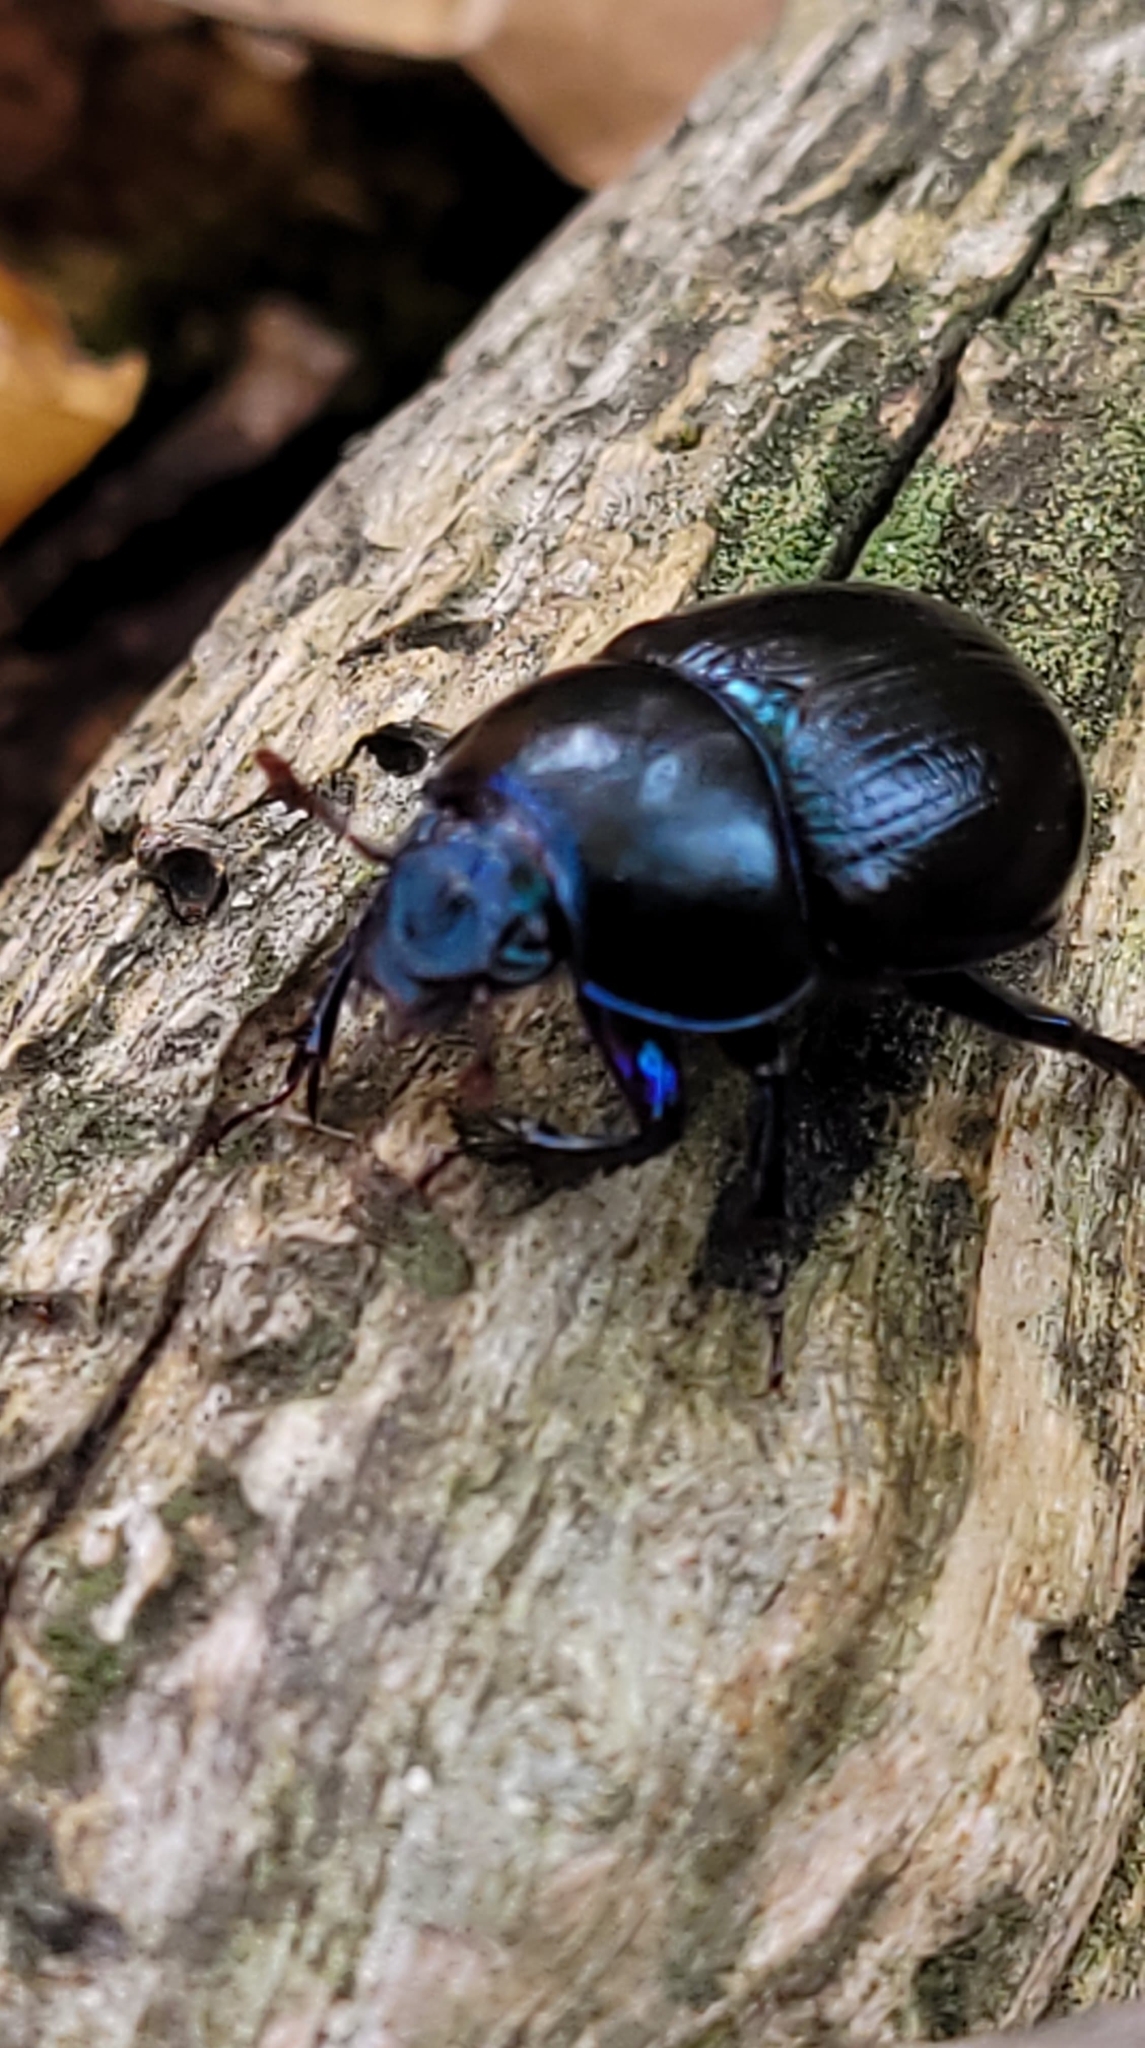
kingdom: Animalia
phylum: Arthropoda
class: Insecta
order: Coleoptera
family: Geotrupidae
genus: Anoplotrupes
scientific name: Anoplotrupes stercorosus
